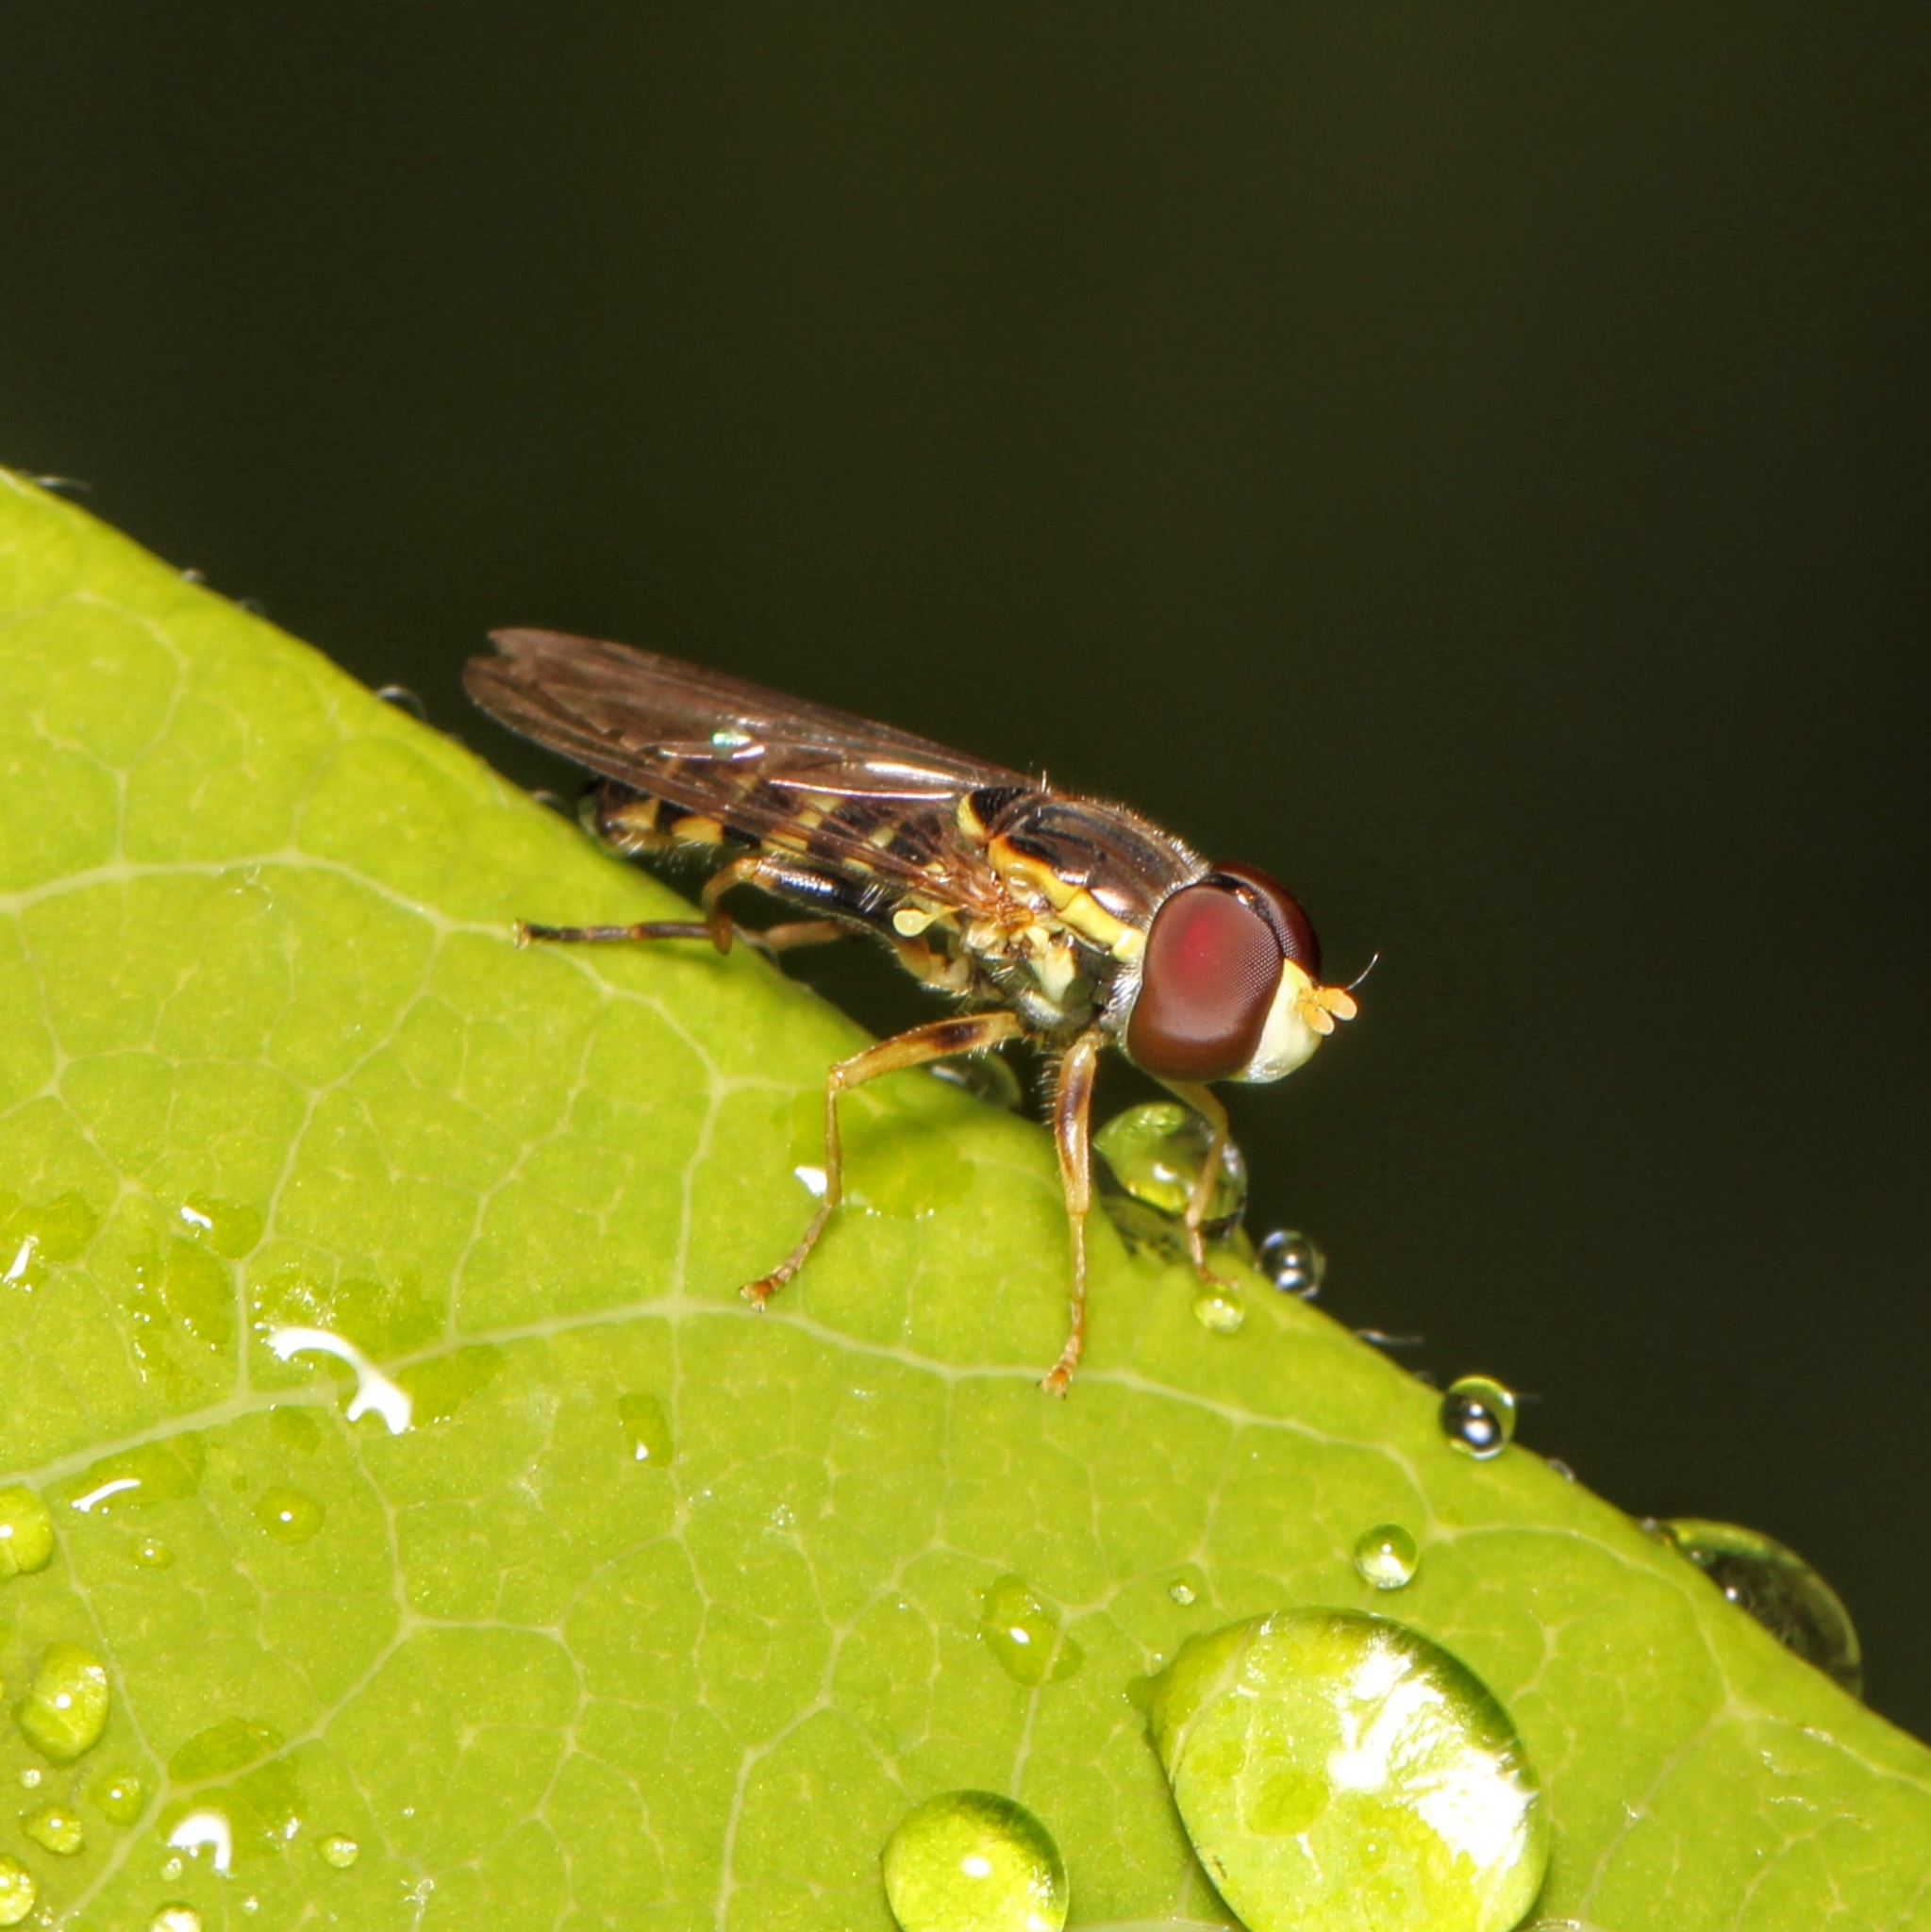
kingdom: Animalia
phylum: Arthropoda
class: Insecta
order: Diptera
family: Syrphidae
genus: Toxomerus
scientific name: Toxomerus geminatus
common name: Eastern calligrapher
